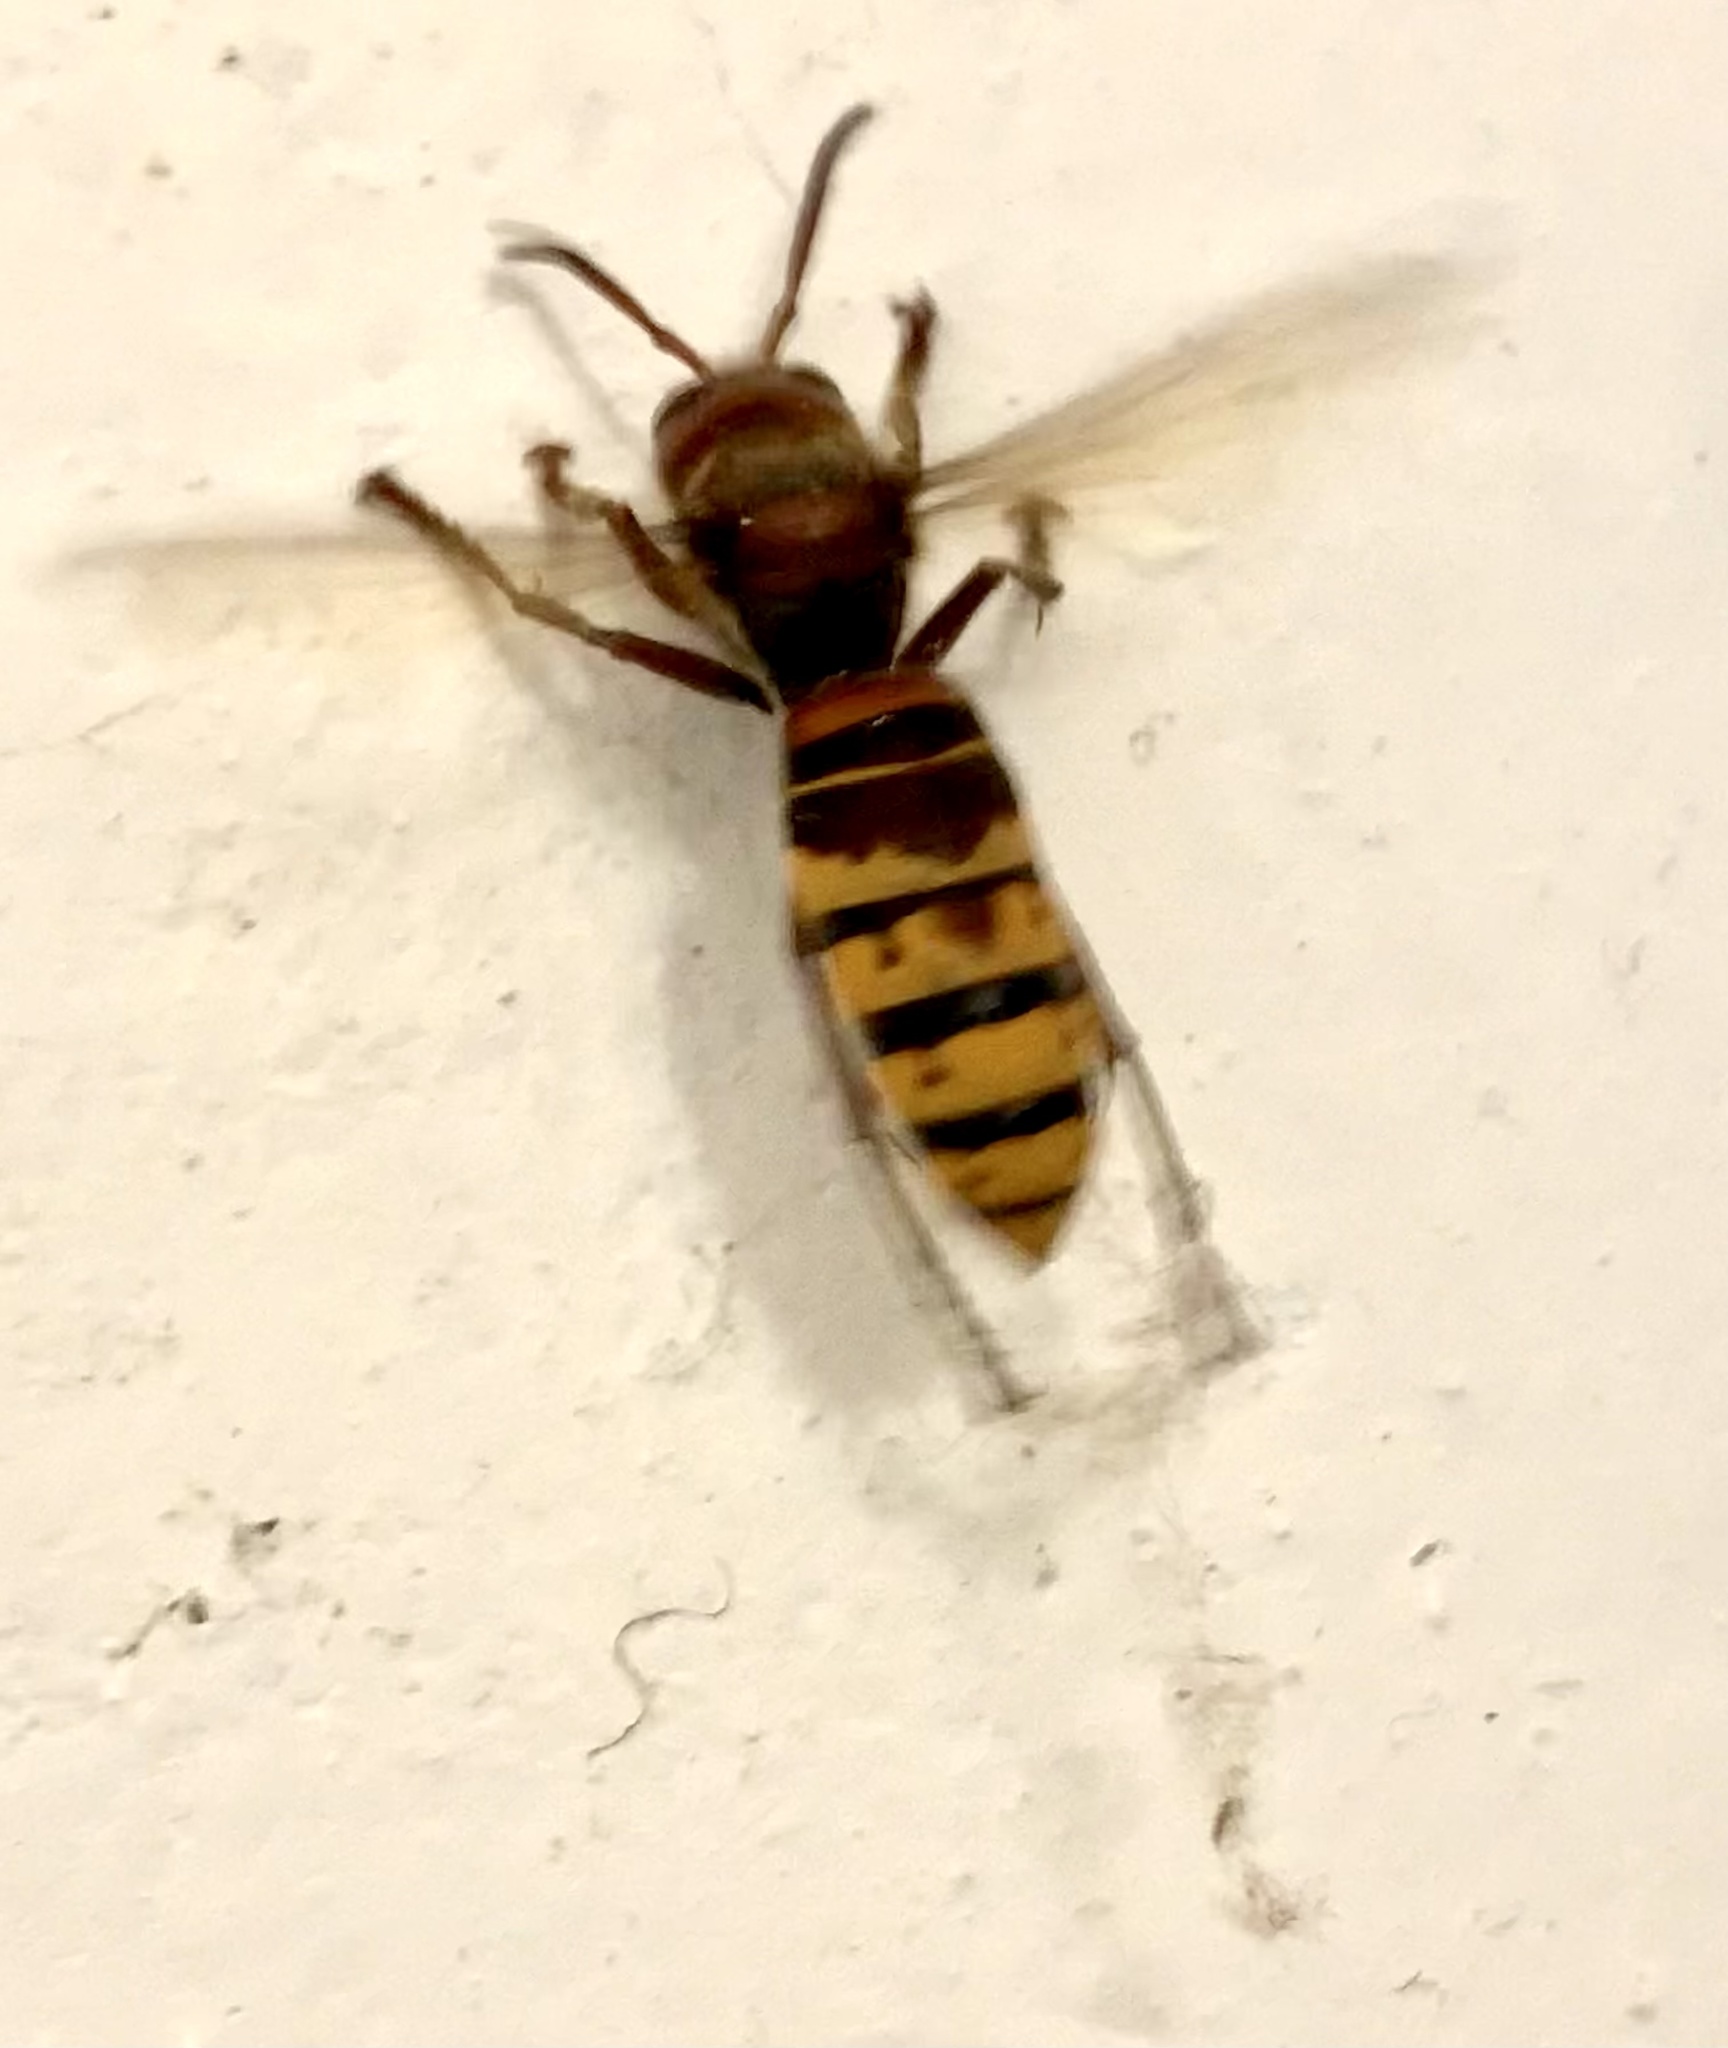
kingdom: Animalia
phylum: Arthropoda
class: Insecta
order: Hymenoptera
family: Vespidae
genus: Vespa
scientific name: Vespa crabro
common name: Hornet
